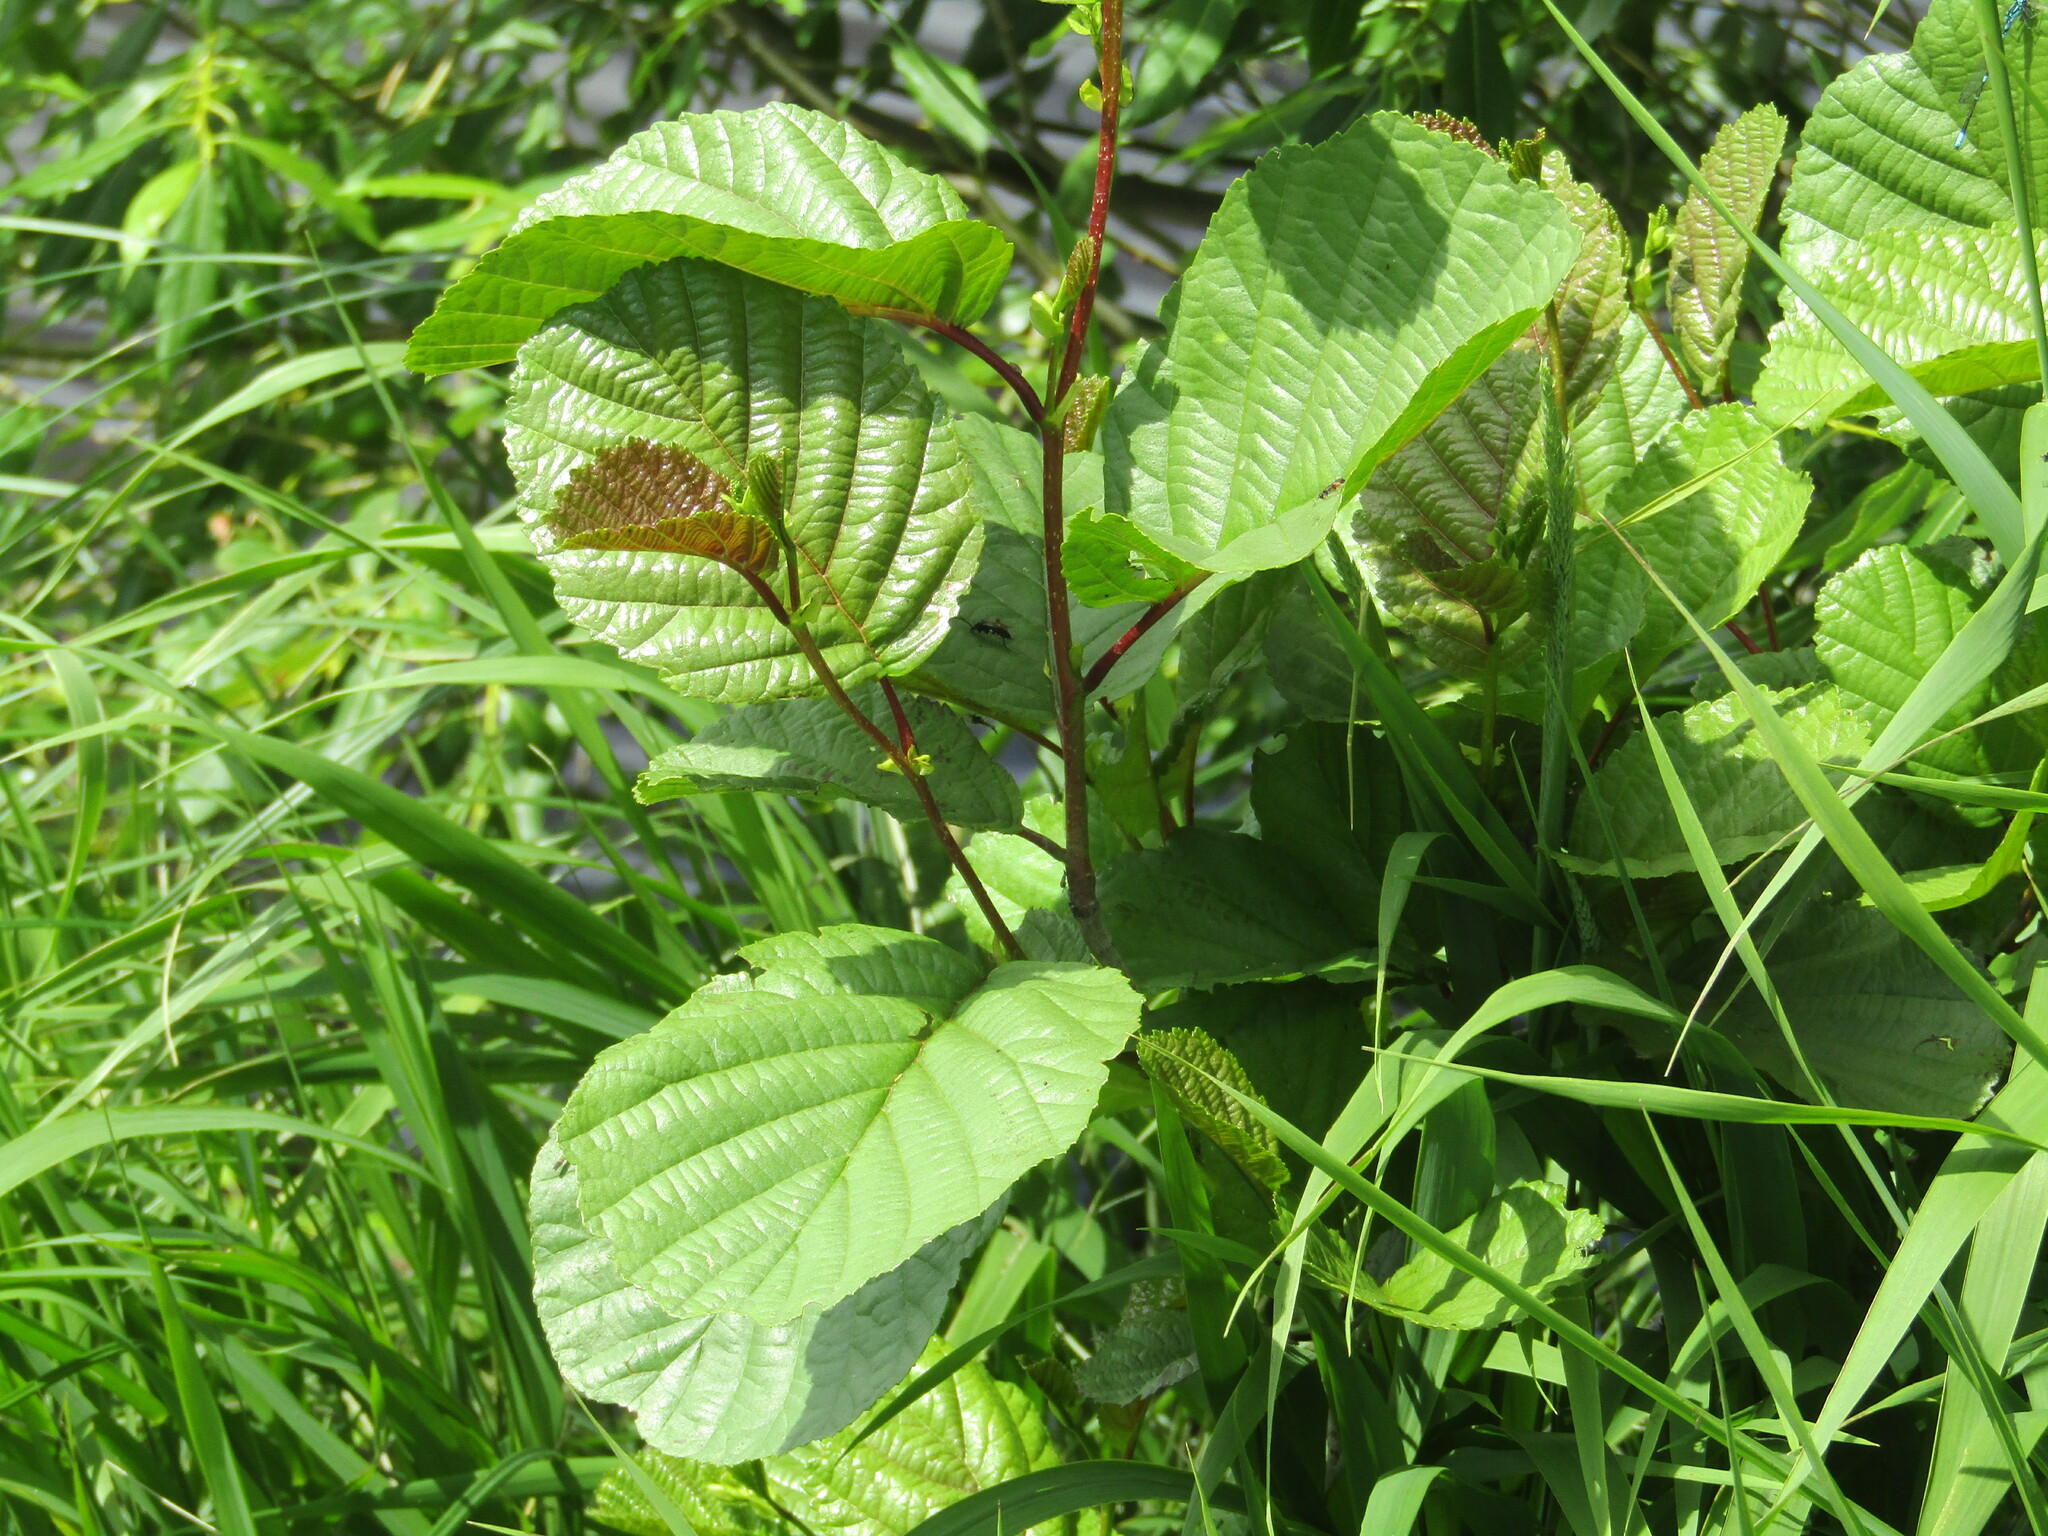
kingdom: Plantae
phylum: Tracheophyta
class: Magnoliopsida
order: Fagales
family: Betulaceae
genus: Alnus
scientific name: Alnus glutinosa
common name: Black alder
